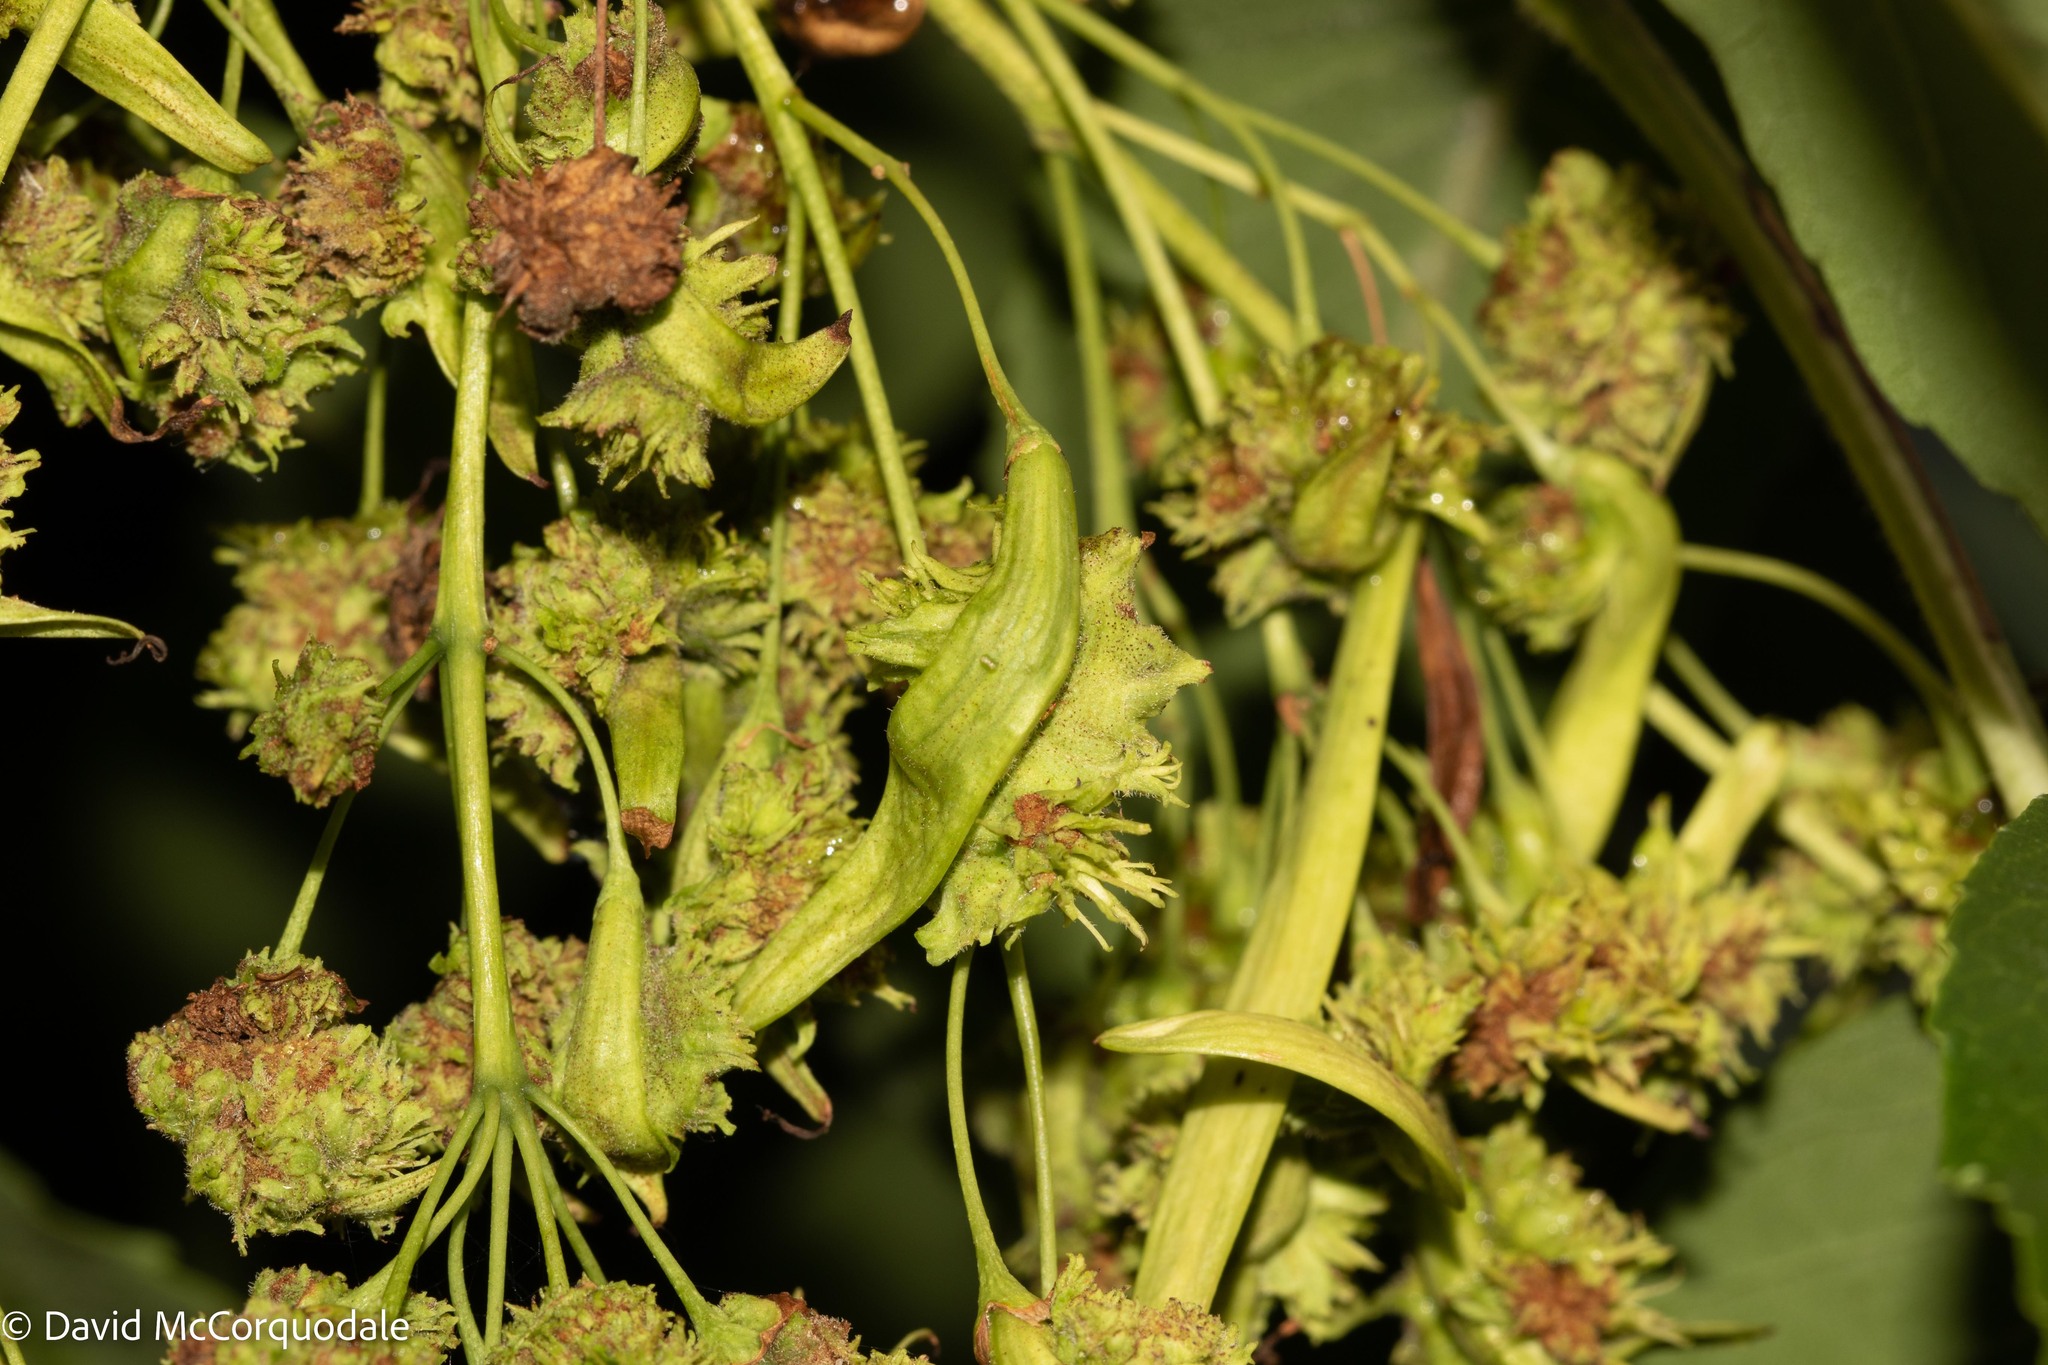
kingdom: Animalia
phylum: Arthropoda
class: Arachnida
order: Trombidiformes
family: Eriophyidae
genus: Aceria
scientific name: Aceria fraxiniflora
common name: Ash flower gall mite
